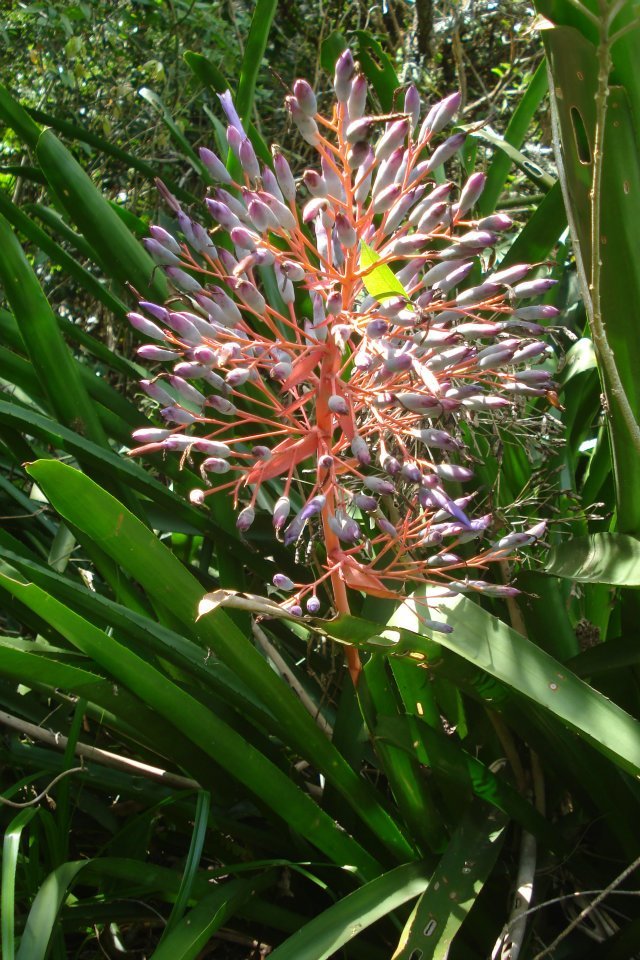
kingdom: Plantae
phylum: Tracheophyta
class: Liliopsida
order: Poales
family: Bromeliaceae
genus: Portea
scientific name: Portea petropolitana
